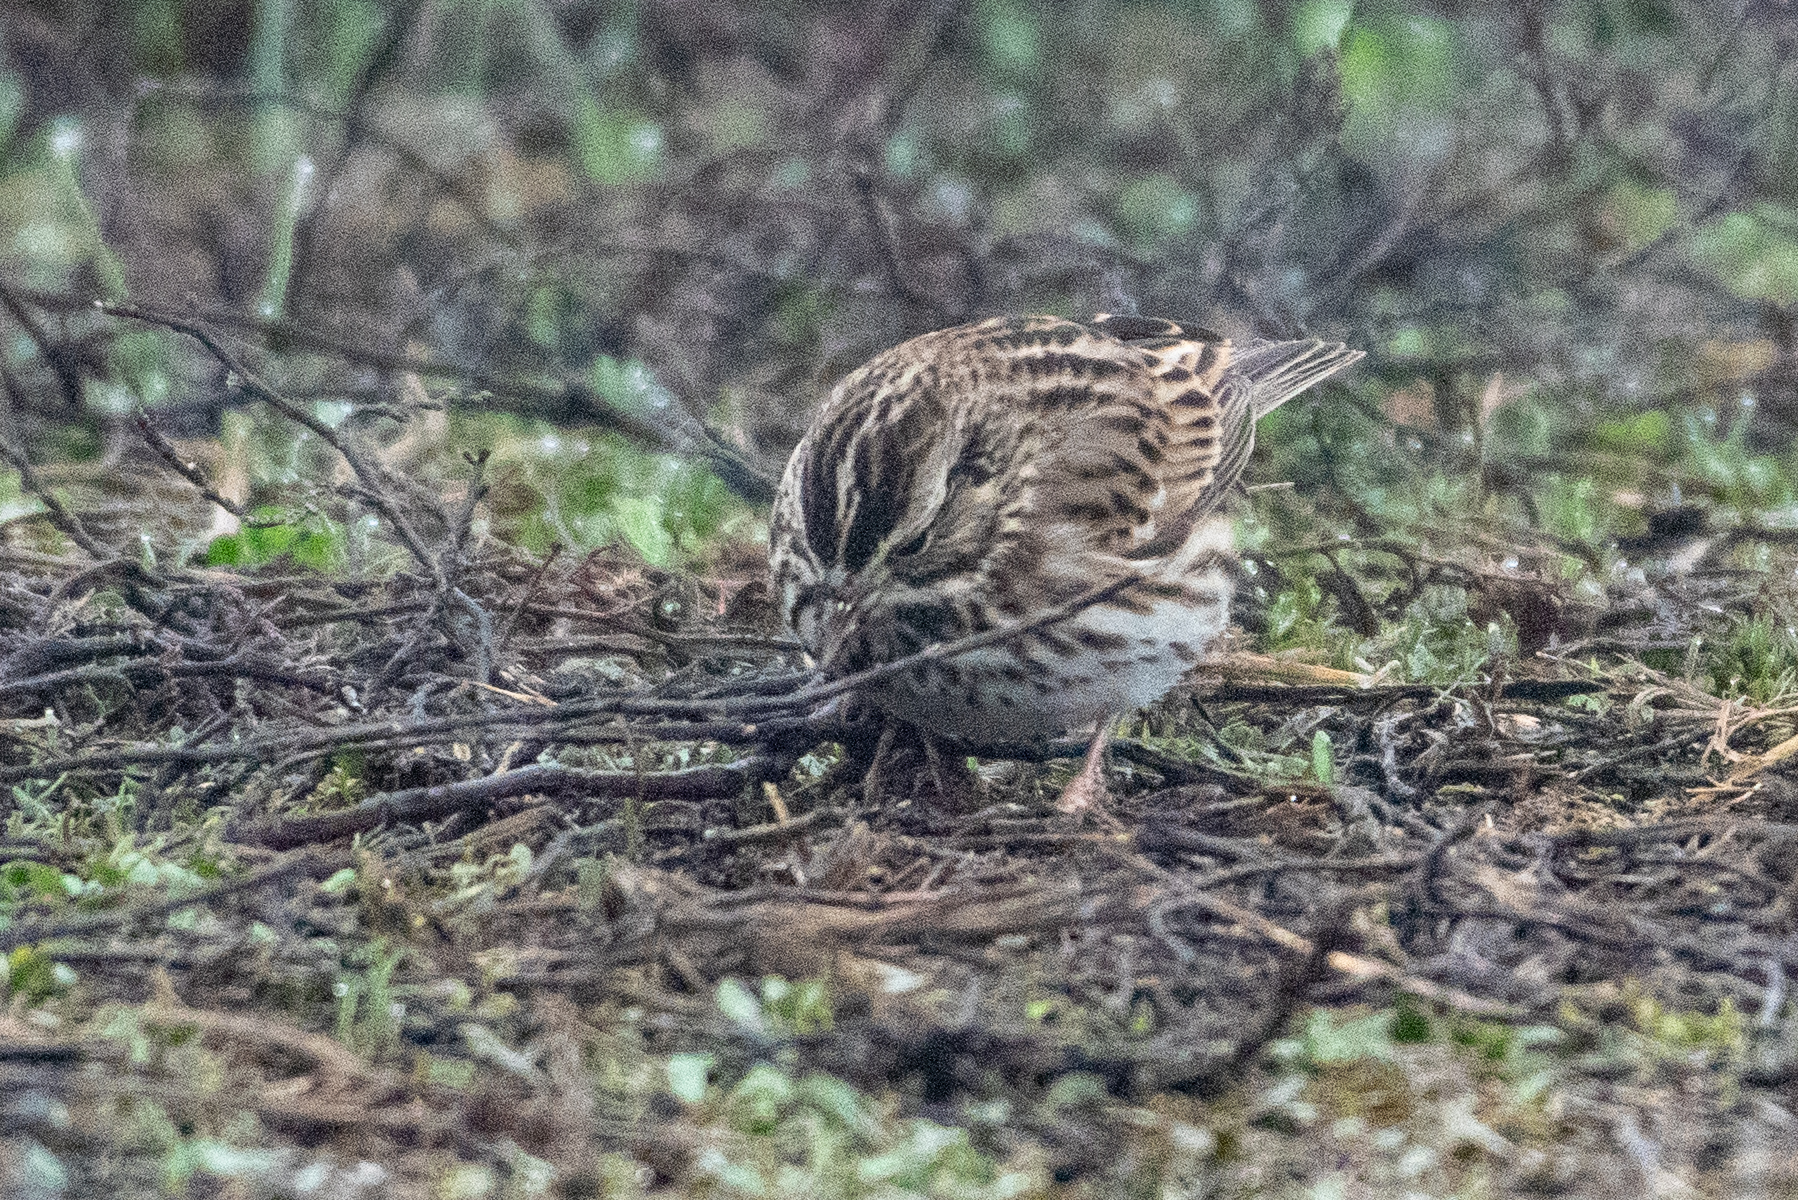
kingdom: Animalia
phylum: Chordata
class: Aves
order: Passeriformes
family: Passerellidae
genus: Passerculus
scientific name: Passerculus sandwichensis
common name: Savannah sparrow
